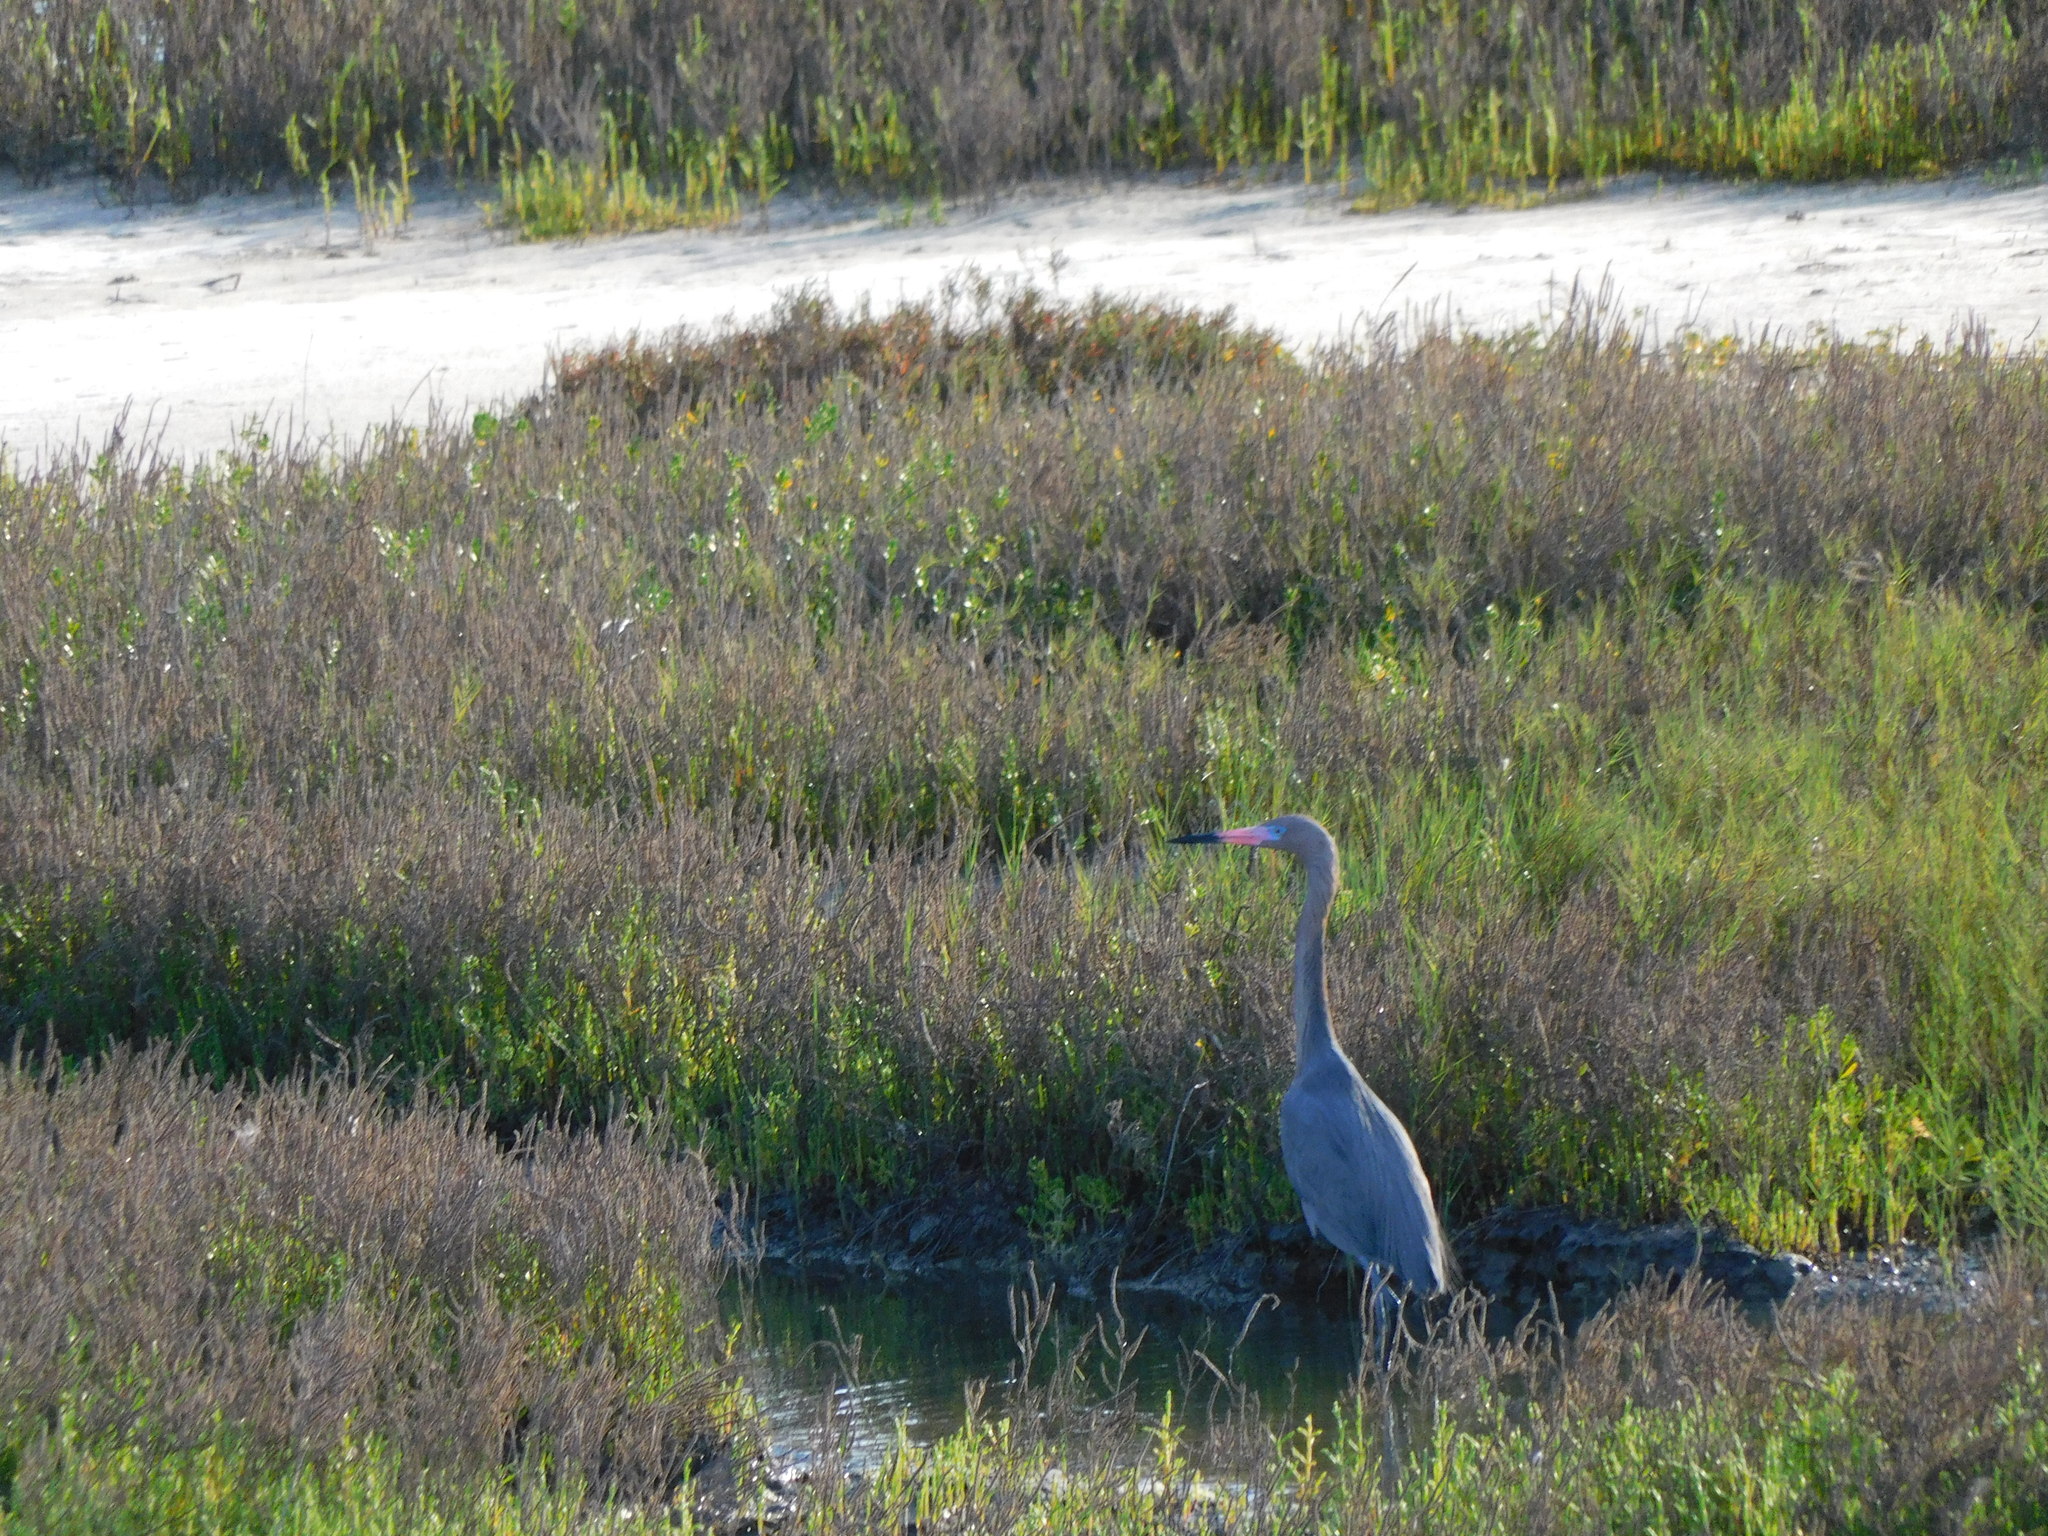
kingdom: Animalia
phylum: Chordata
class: Aves
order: Pelecaniformes
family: Ardeidae
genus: Egretta
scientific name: Egretta rufescens
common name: Reddish egret
